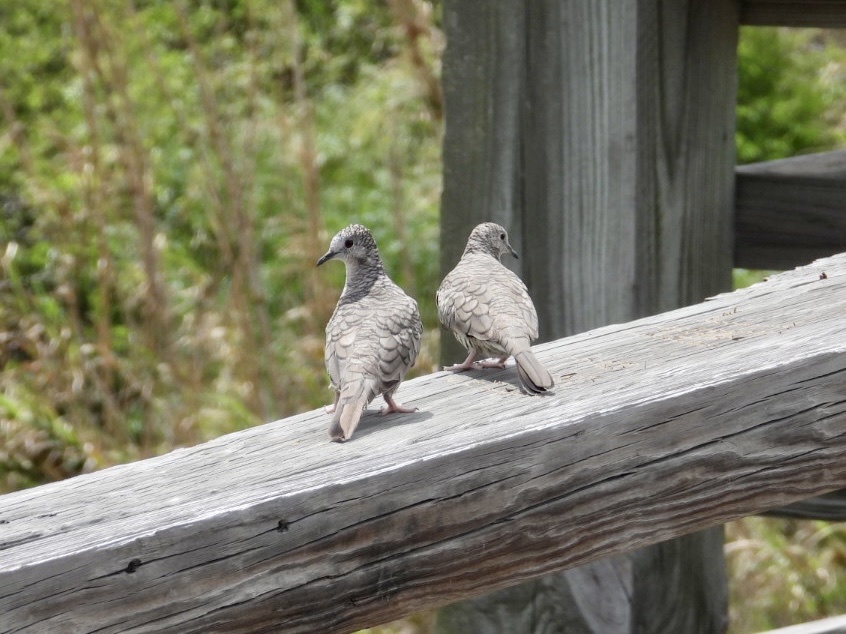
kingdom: Animalia
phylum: Chordata
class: Aves
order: Columbiformes
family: Columbidae
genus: Columbina
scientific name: Columbina inca
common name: Inca dove
